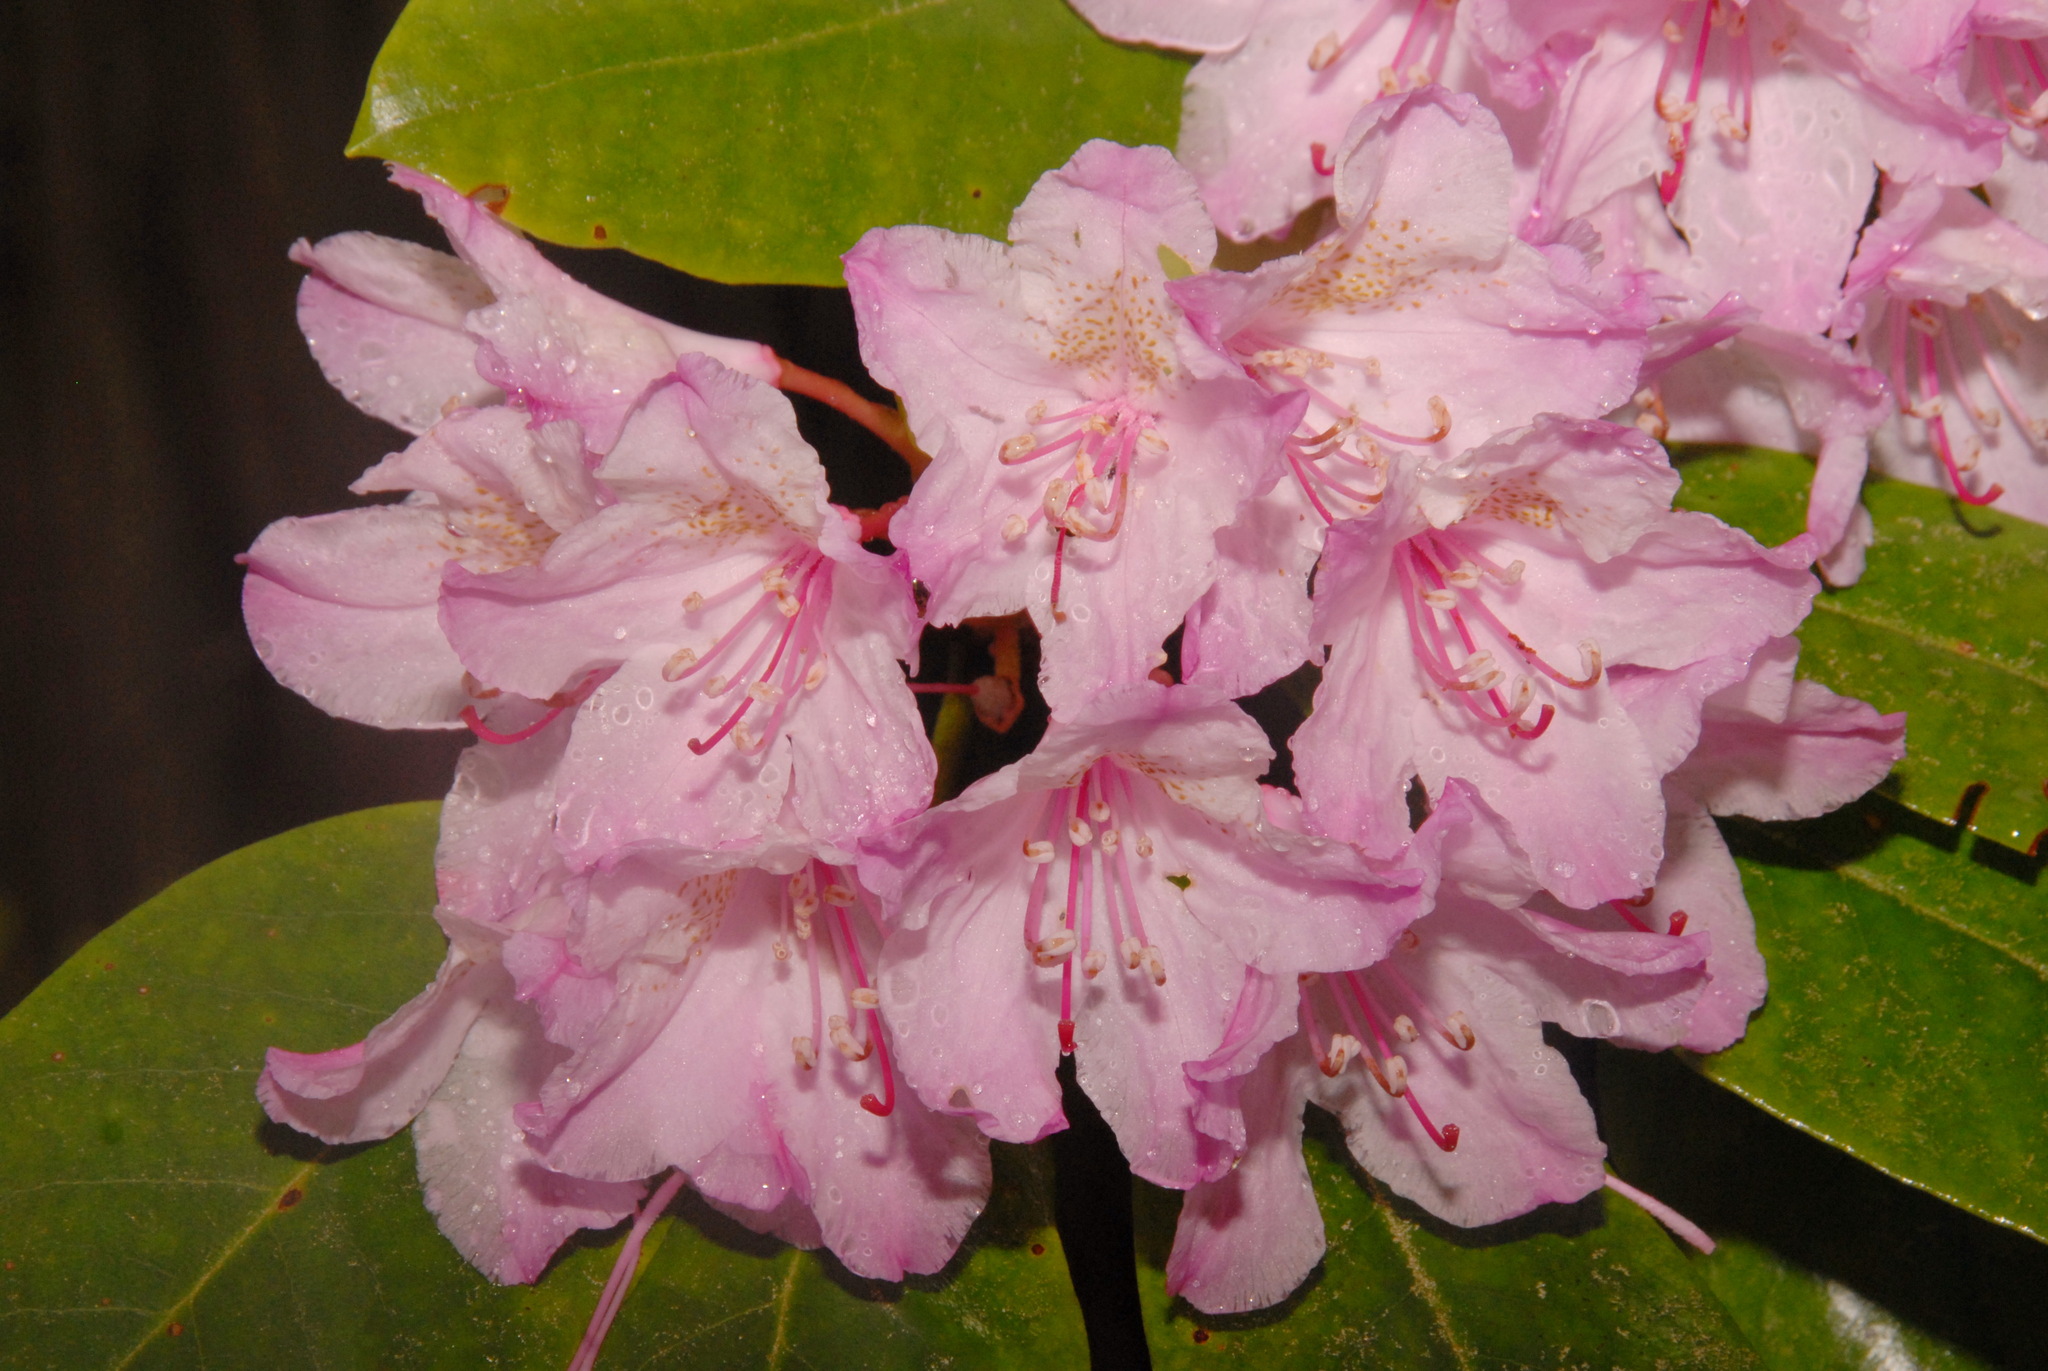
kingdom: Plantae
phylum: Tracheophyta
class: Magnoliopsida
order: Ericales
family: Ericaceae
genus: Rhododendron
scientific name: Rhododendron macrophyllum
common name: California rose bay
